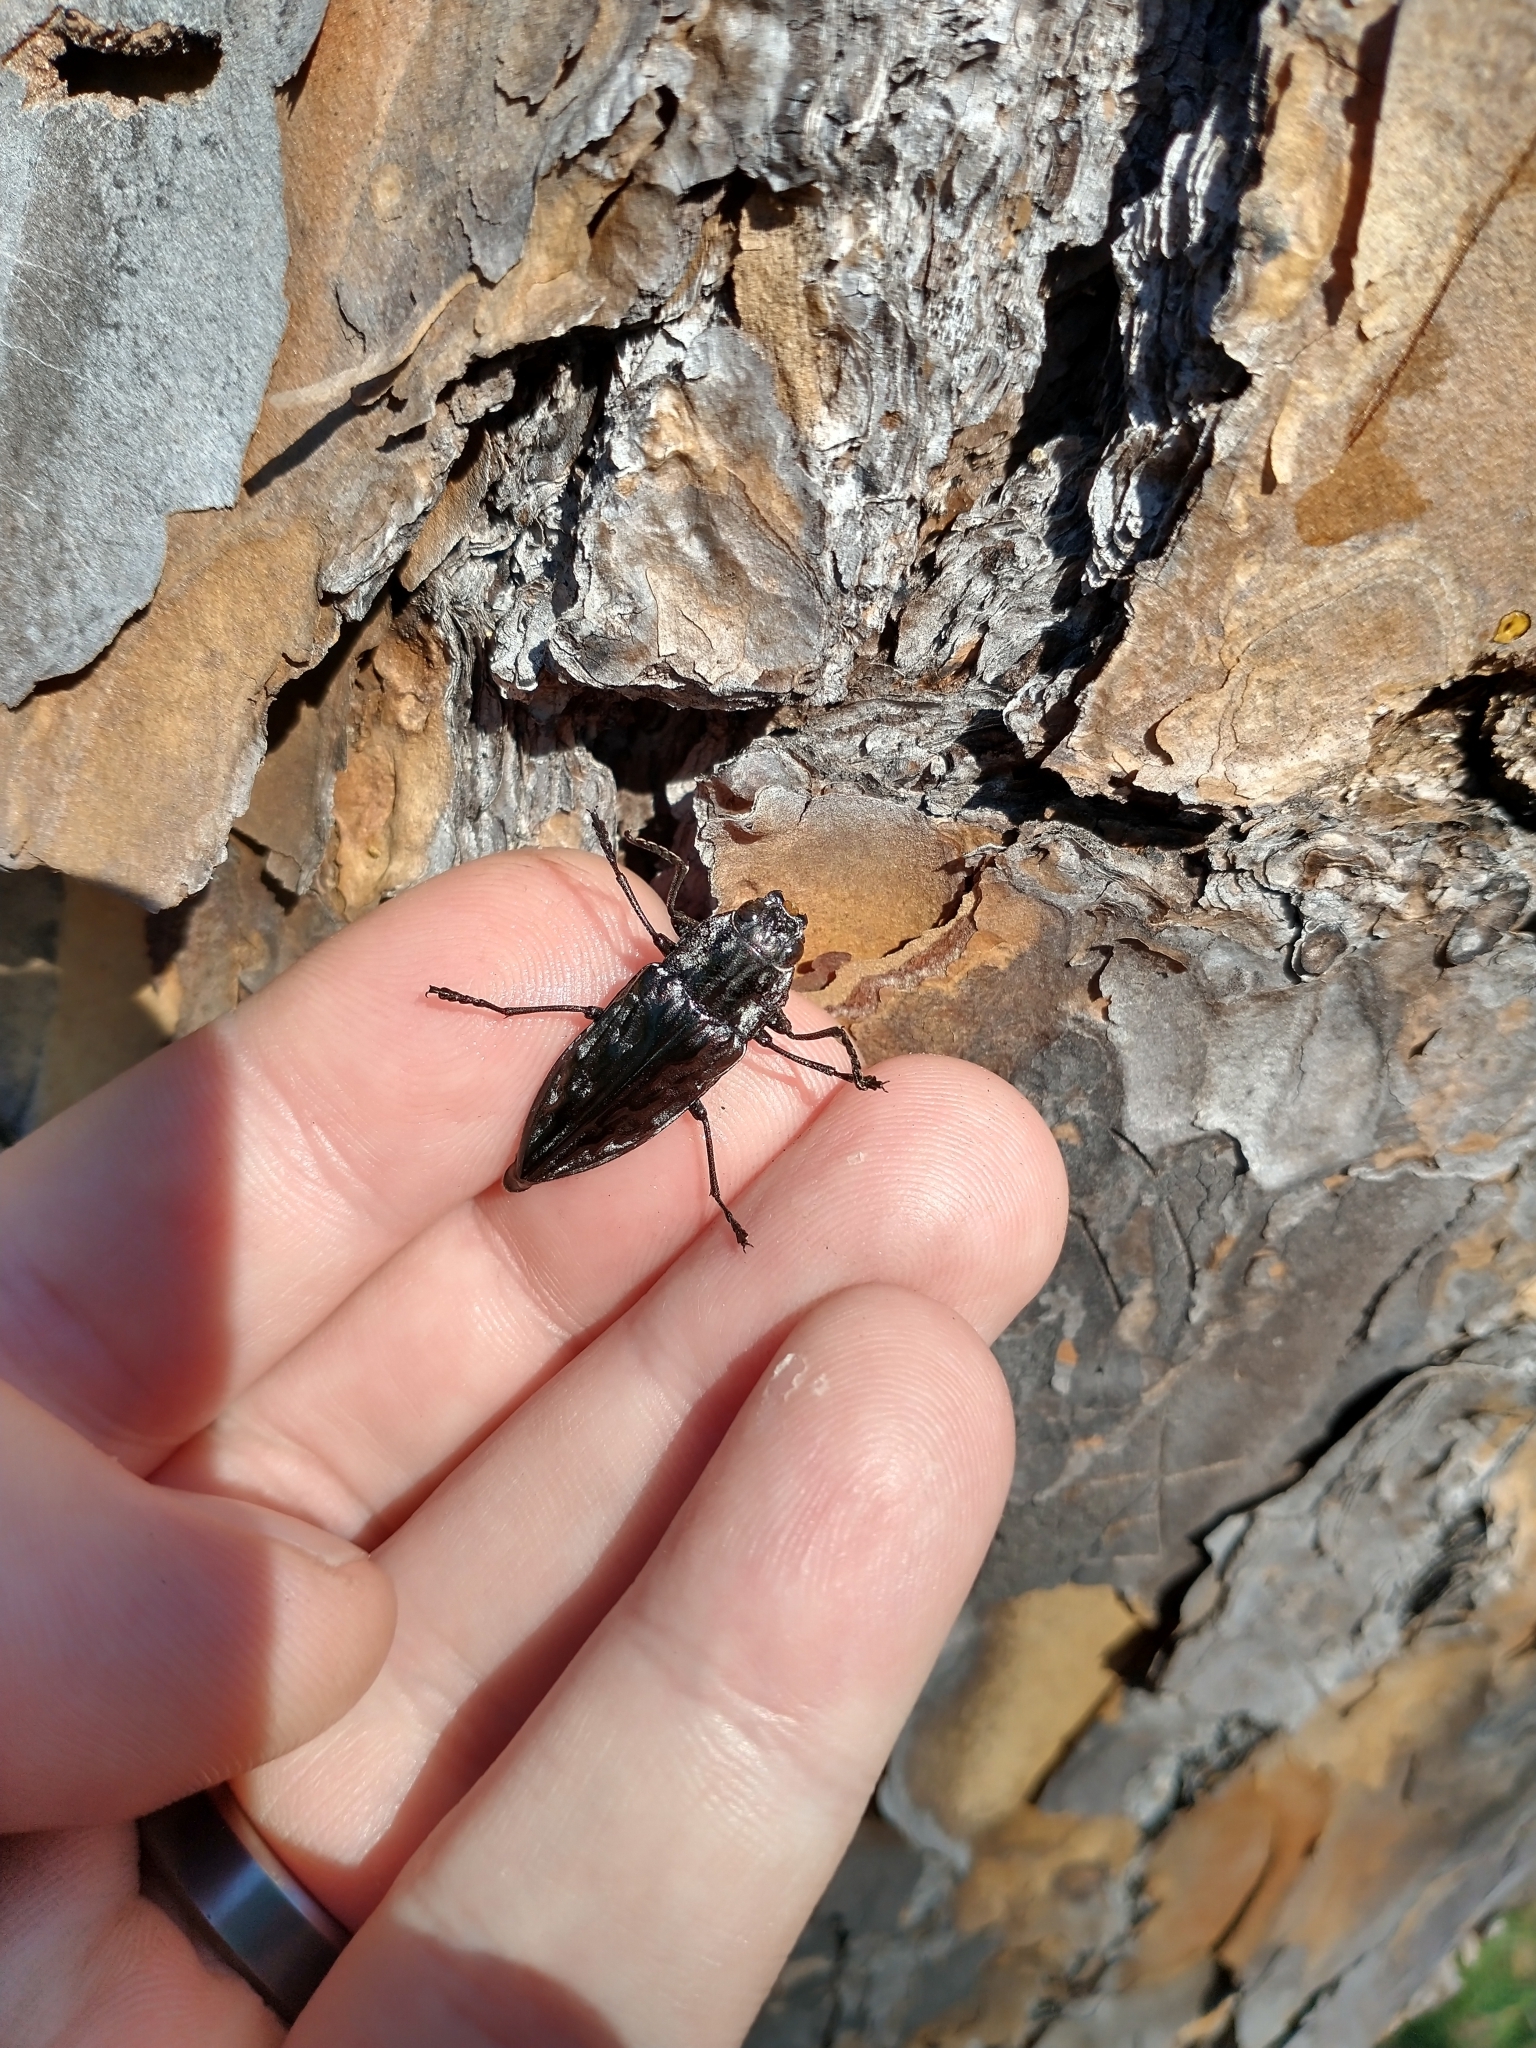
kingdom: Animalia
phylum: Arthropoda
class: Insecta
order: Coleoptera
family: Buprestidae
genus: Chalcophora
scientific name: Chalcophora virginiensis
